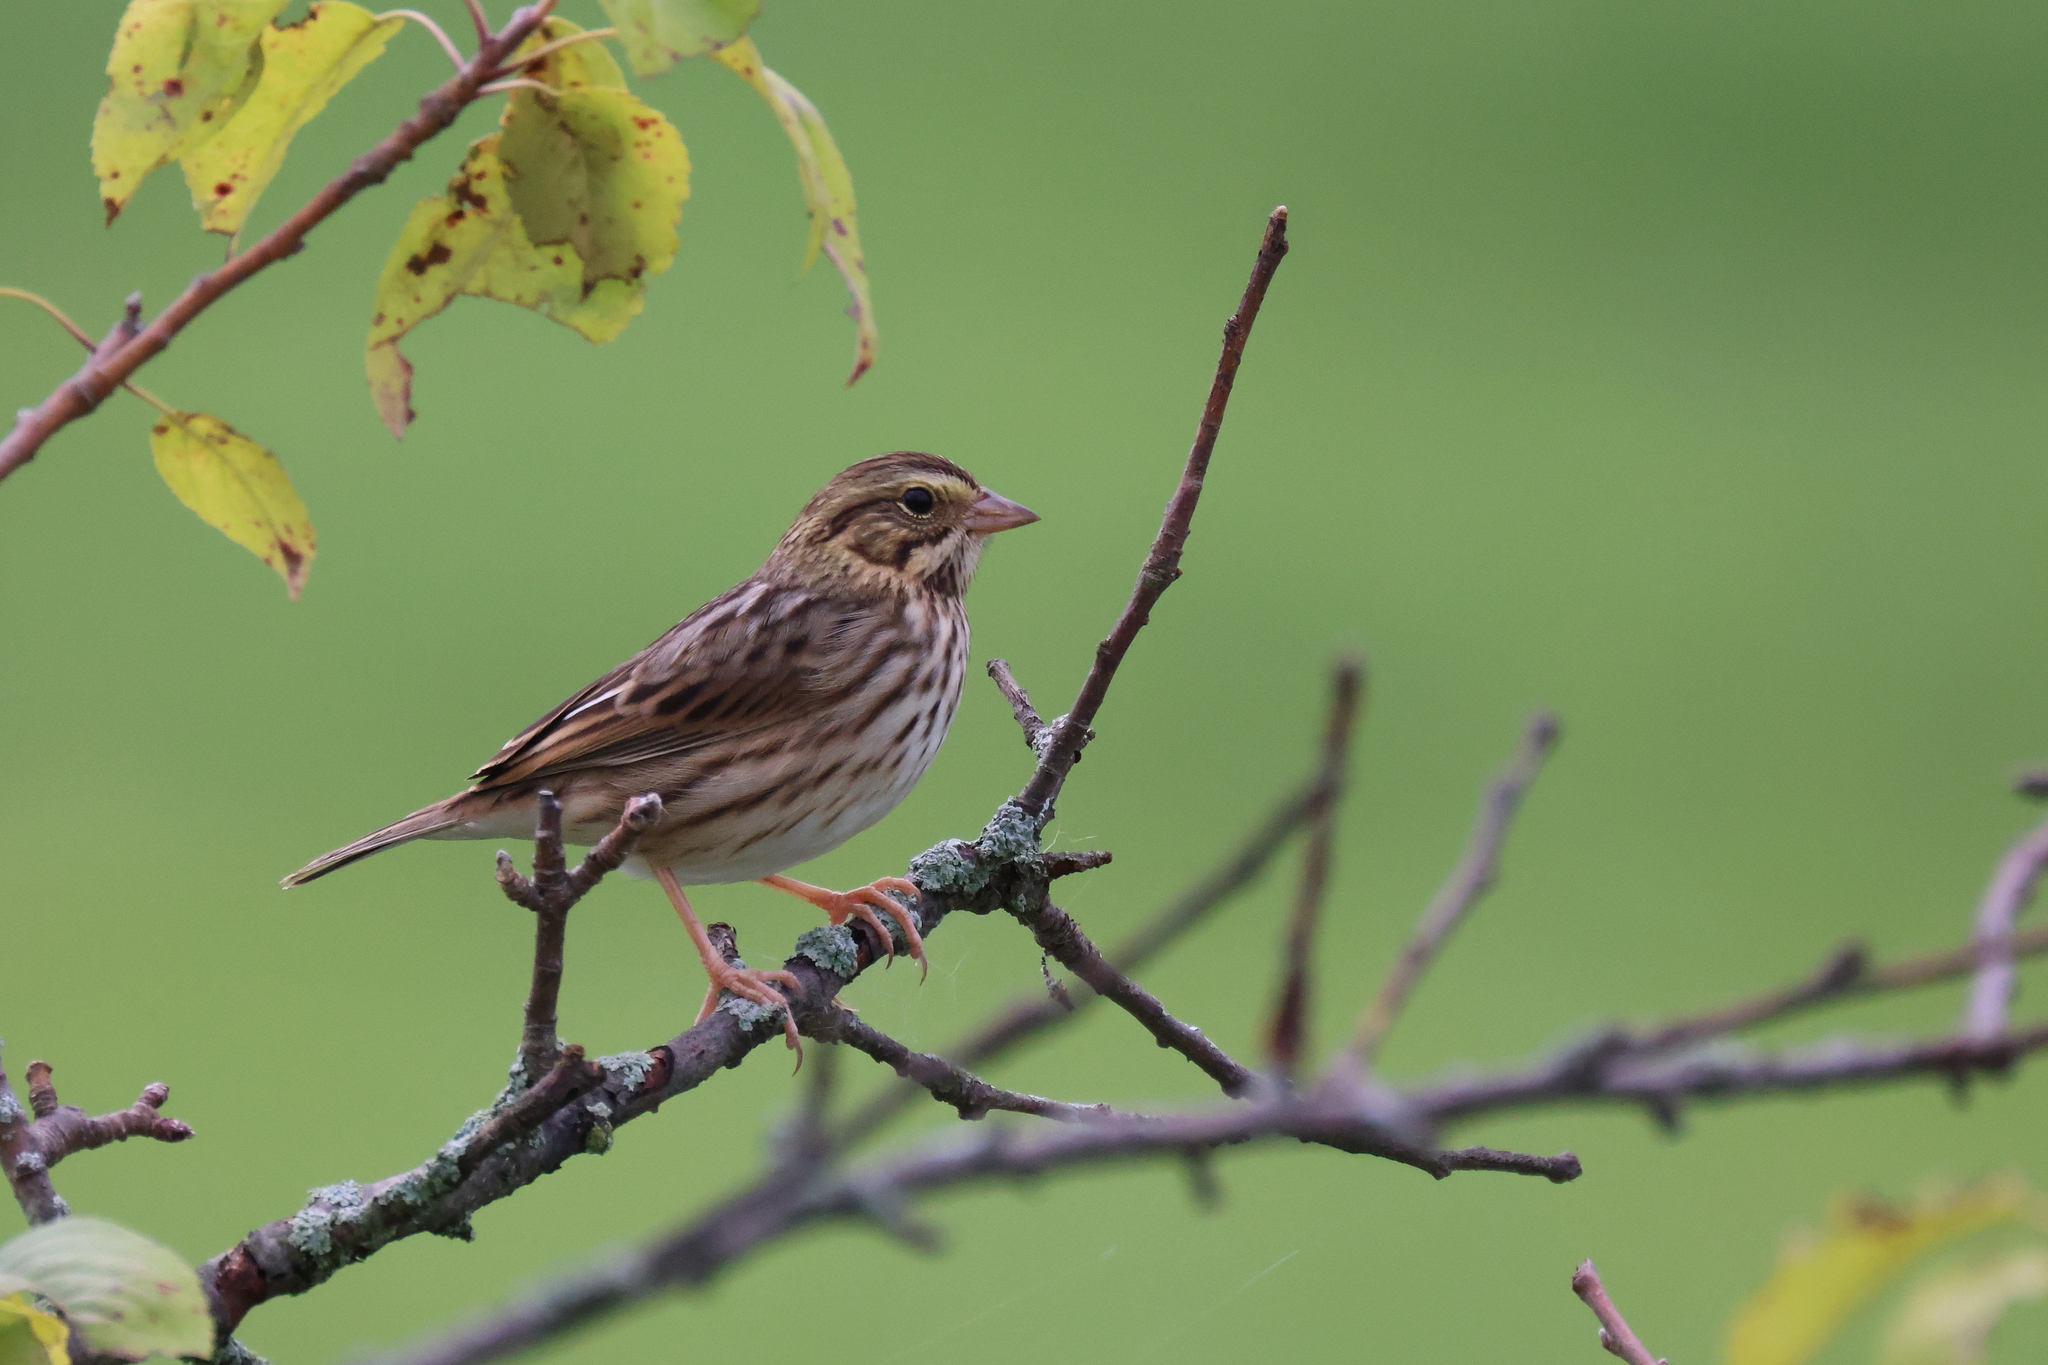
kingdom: Animalia
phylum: Chordata
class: Aves
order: Passeriformes
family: Passerellidae
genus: Passerculus
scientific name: Passerculus sandwichensis
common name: Savannah sparrow
